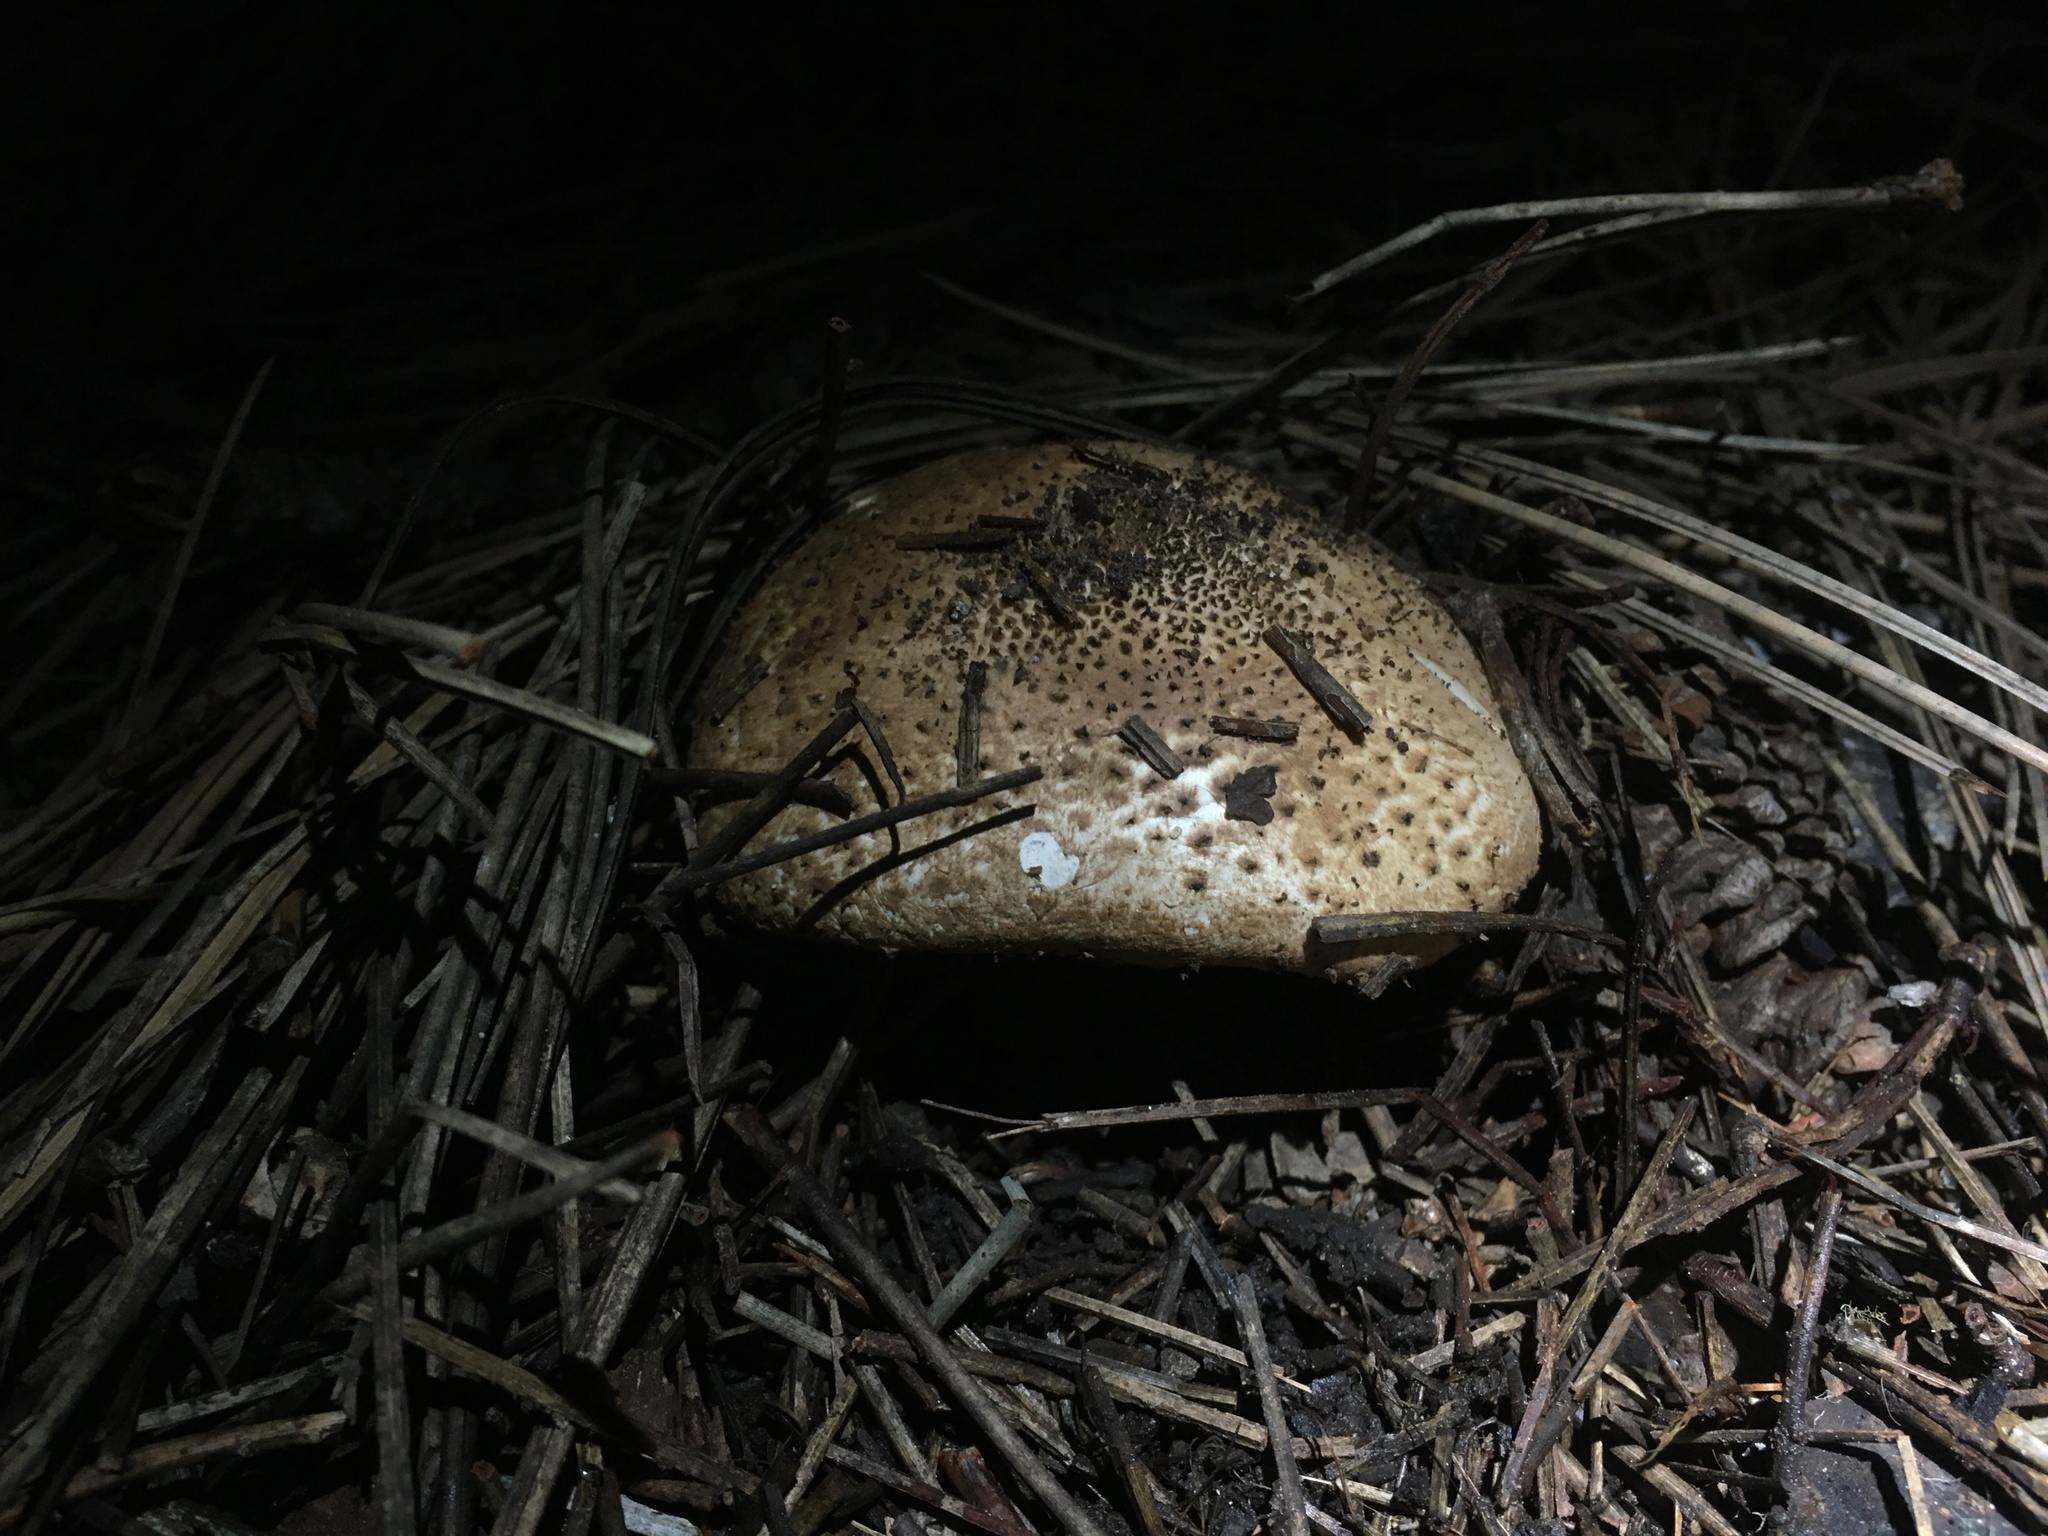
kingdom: Fungi
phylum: Basidiomycota
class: Agaricomycetes
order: Agaricales
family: Agaricaceae
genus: Echinoderma
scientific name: Echinoderma asperum
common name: Freckled dapperling
